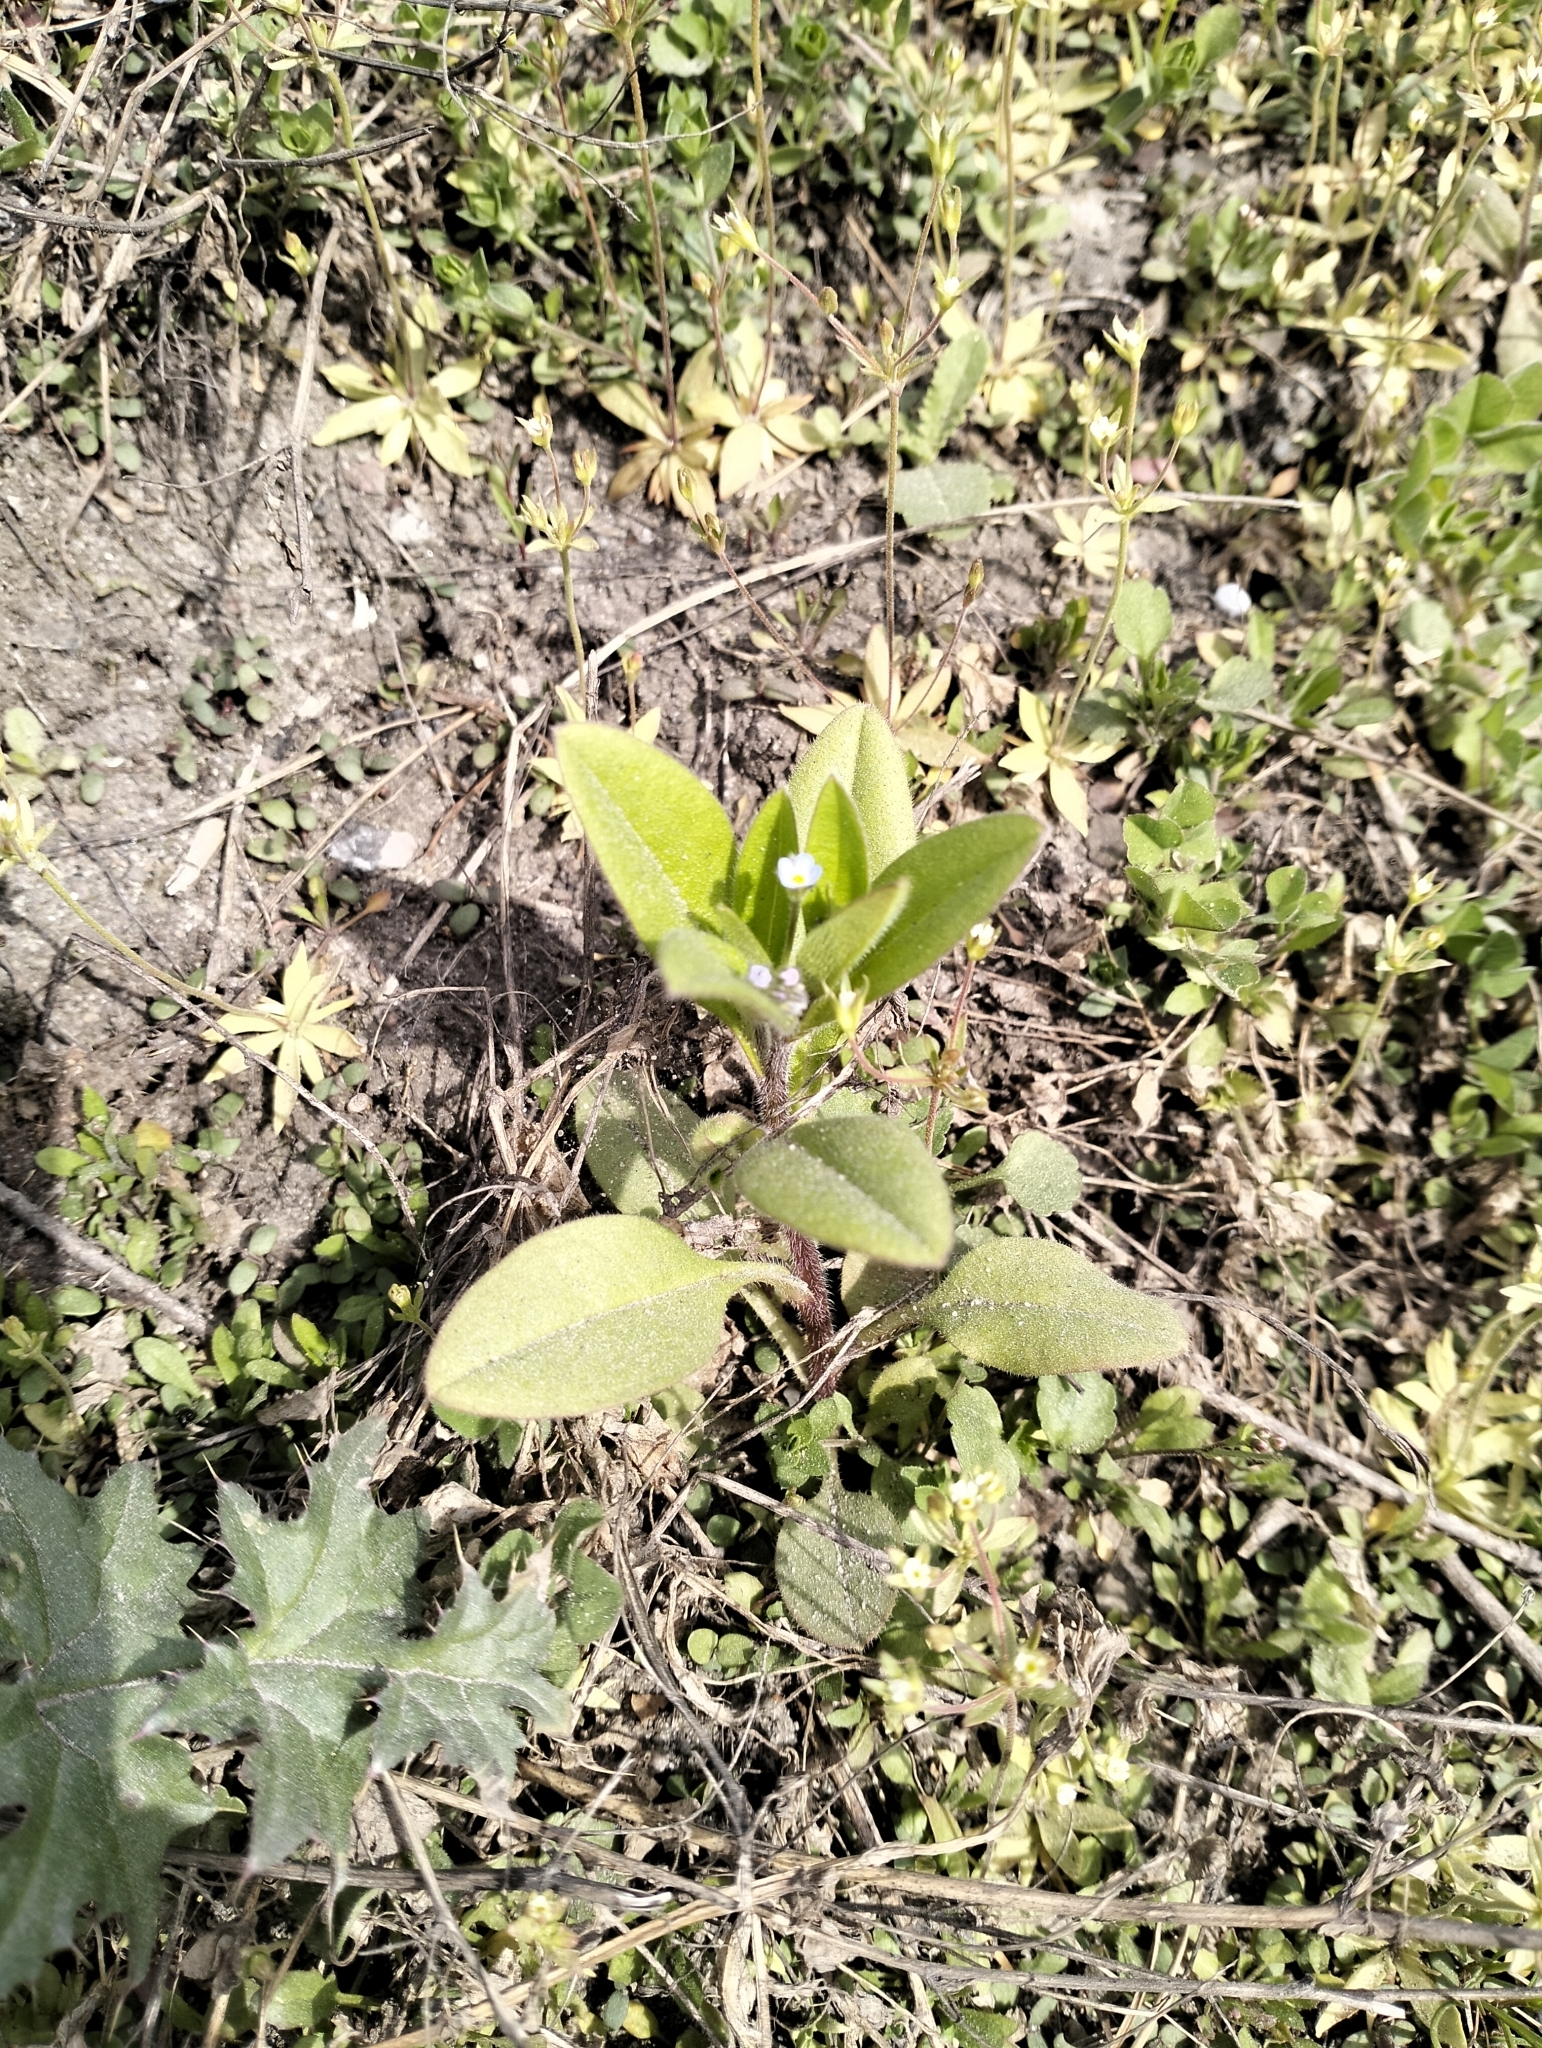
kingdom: Plantae
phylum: Tracheophyta
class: Magnoliopsida
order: Boraginales
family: Boraginaceae
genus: Myosotis
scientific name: Myosotis sparsiflora
